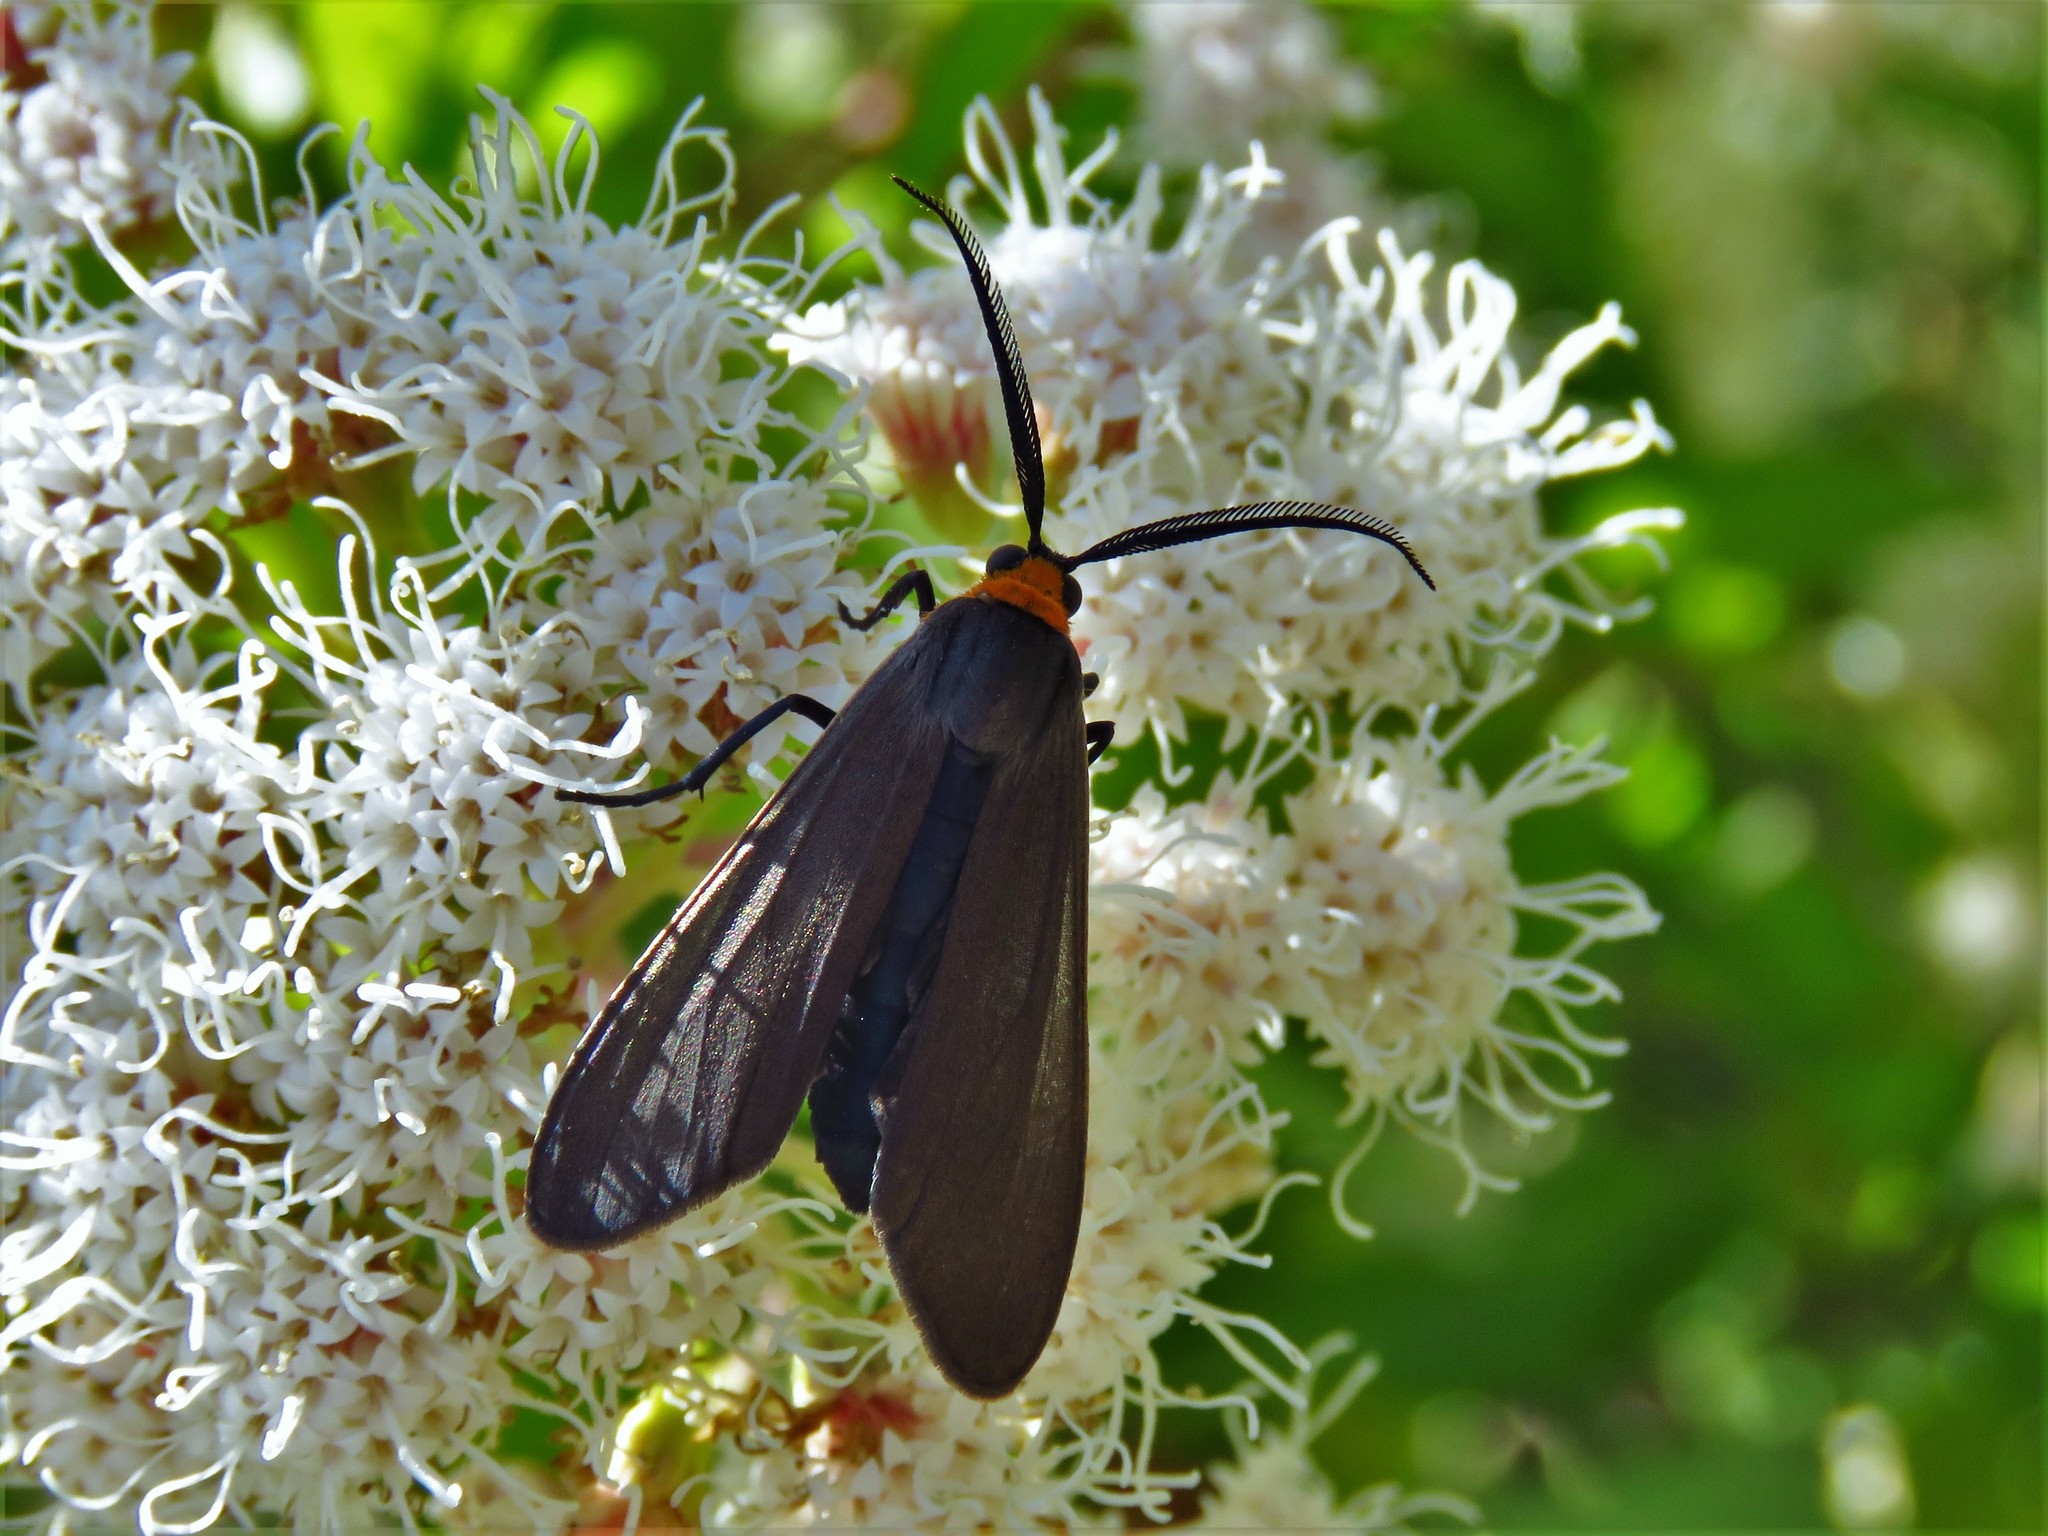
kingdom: Animalia
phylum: Arthropoda
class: Insecta
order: Lepidoptera
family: Erebidae
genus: Cisseps
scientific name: Cisseps fulvicollis
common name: Yellow-collared scape moth
